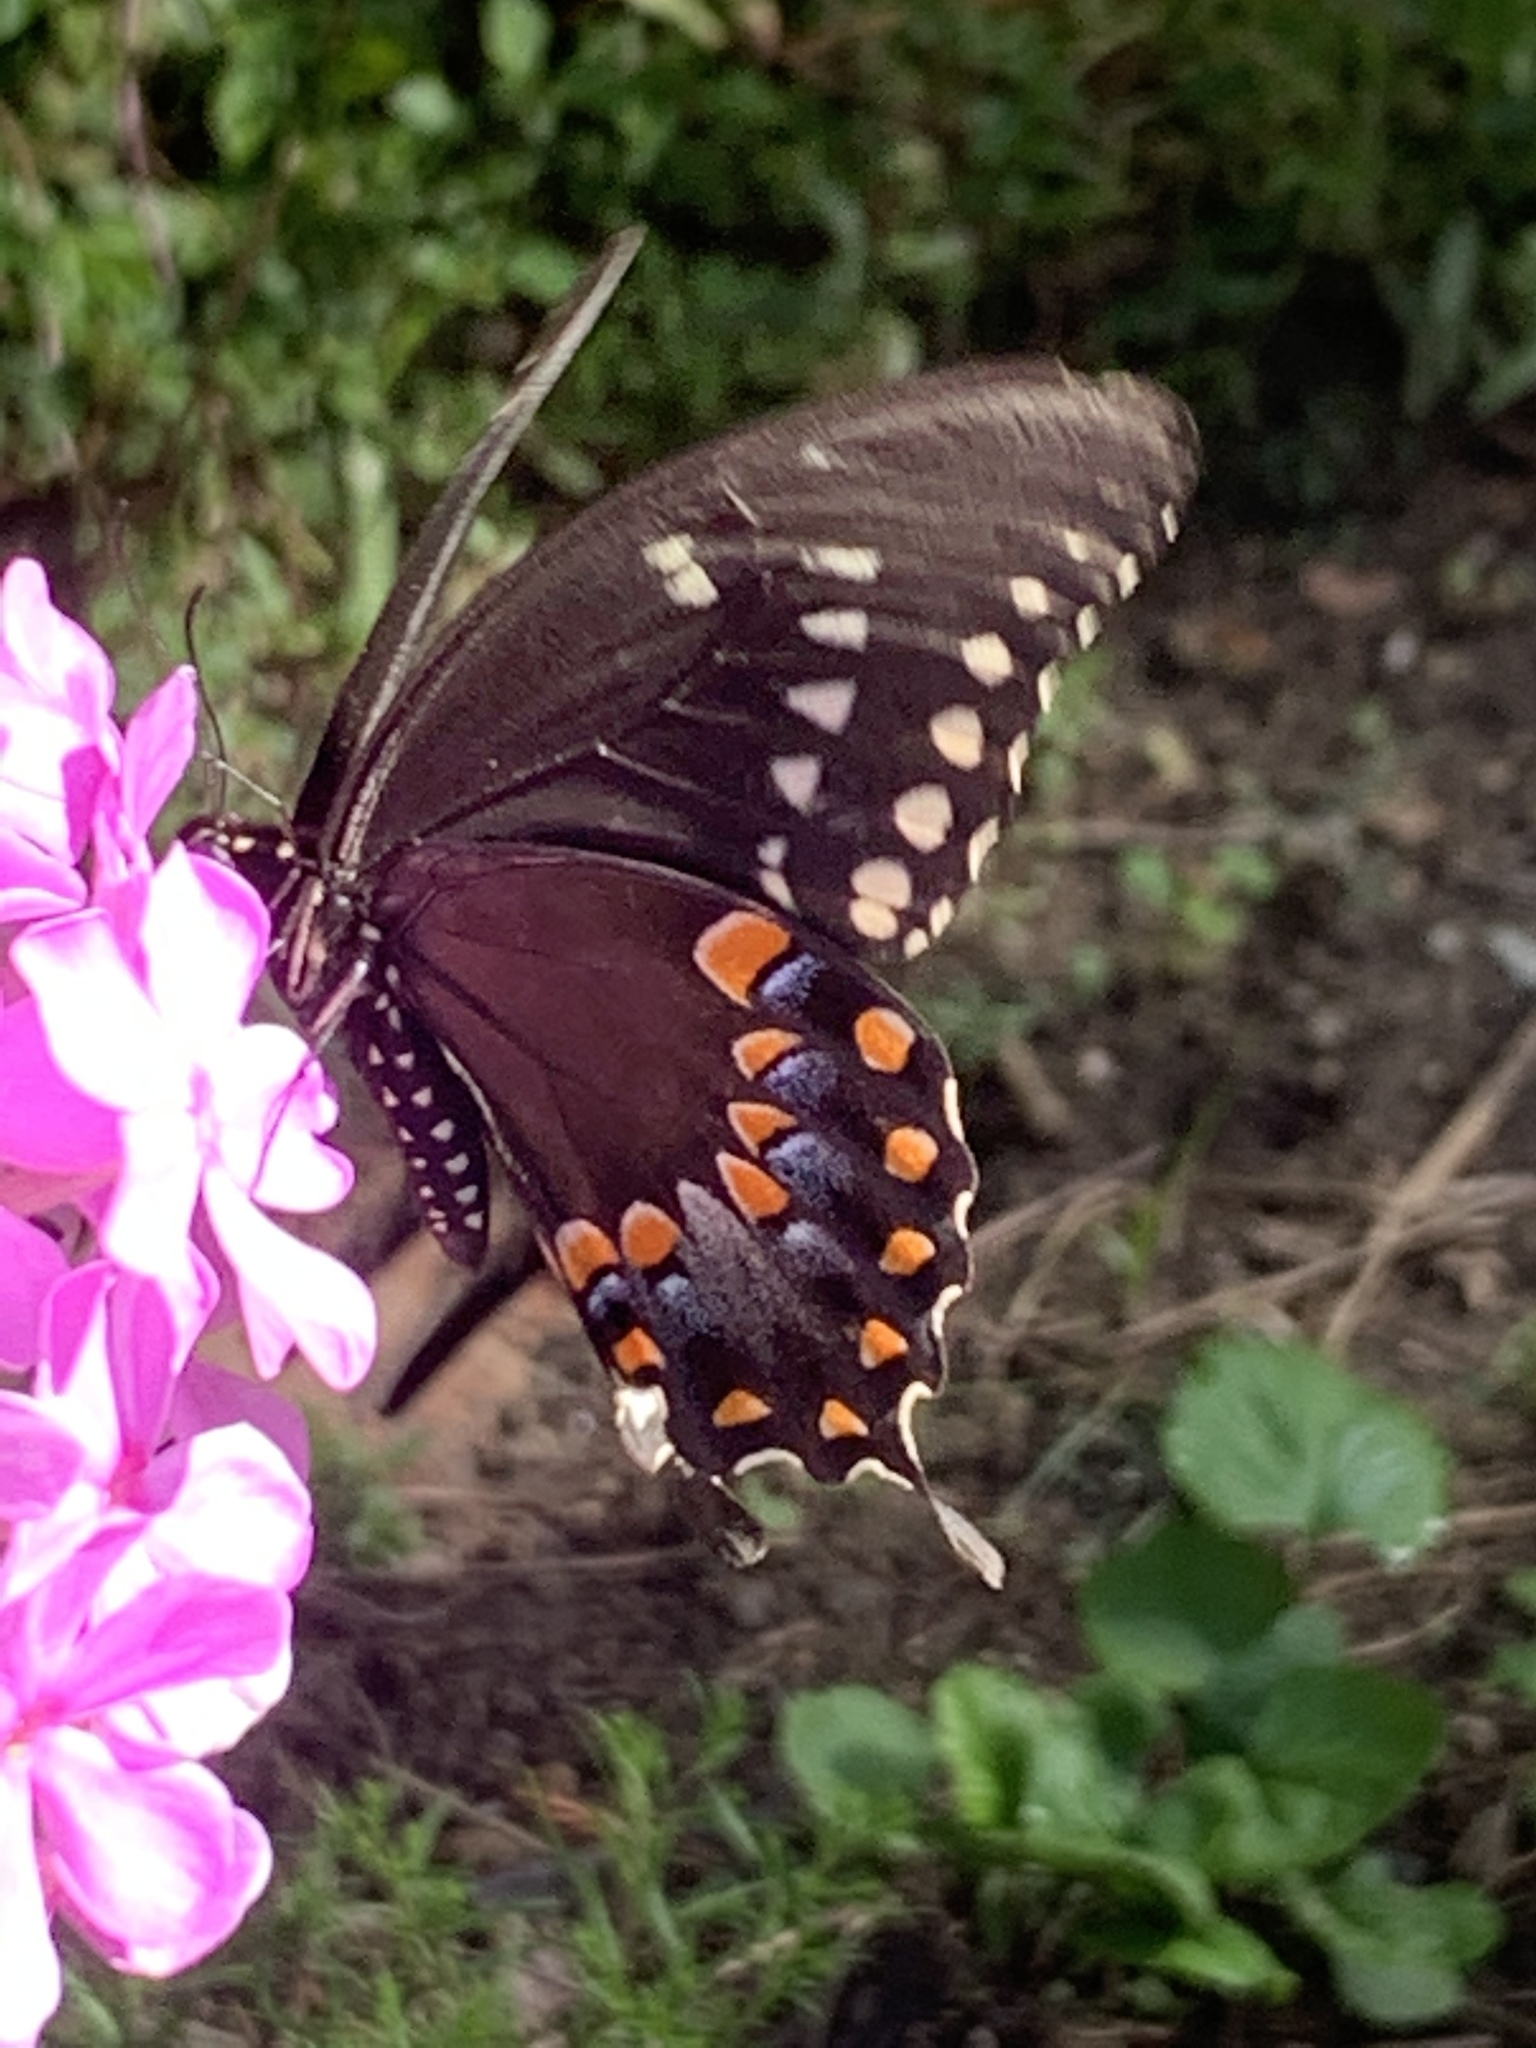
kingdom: Animalia
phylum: Arthropoda
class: Insecta
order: Lepidoptera
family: Papilionidae
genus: Papilio
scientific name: Papilio troilus
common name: Spicebush swallowtail
